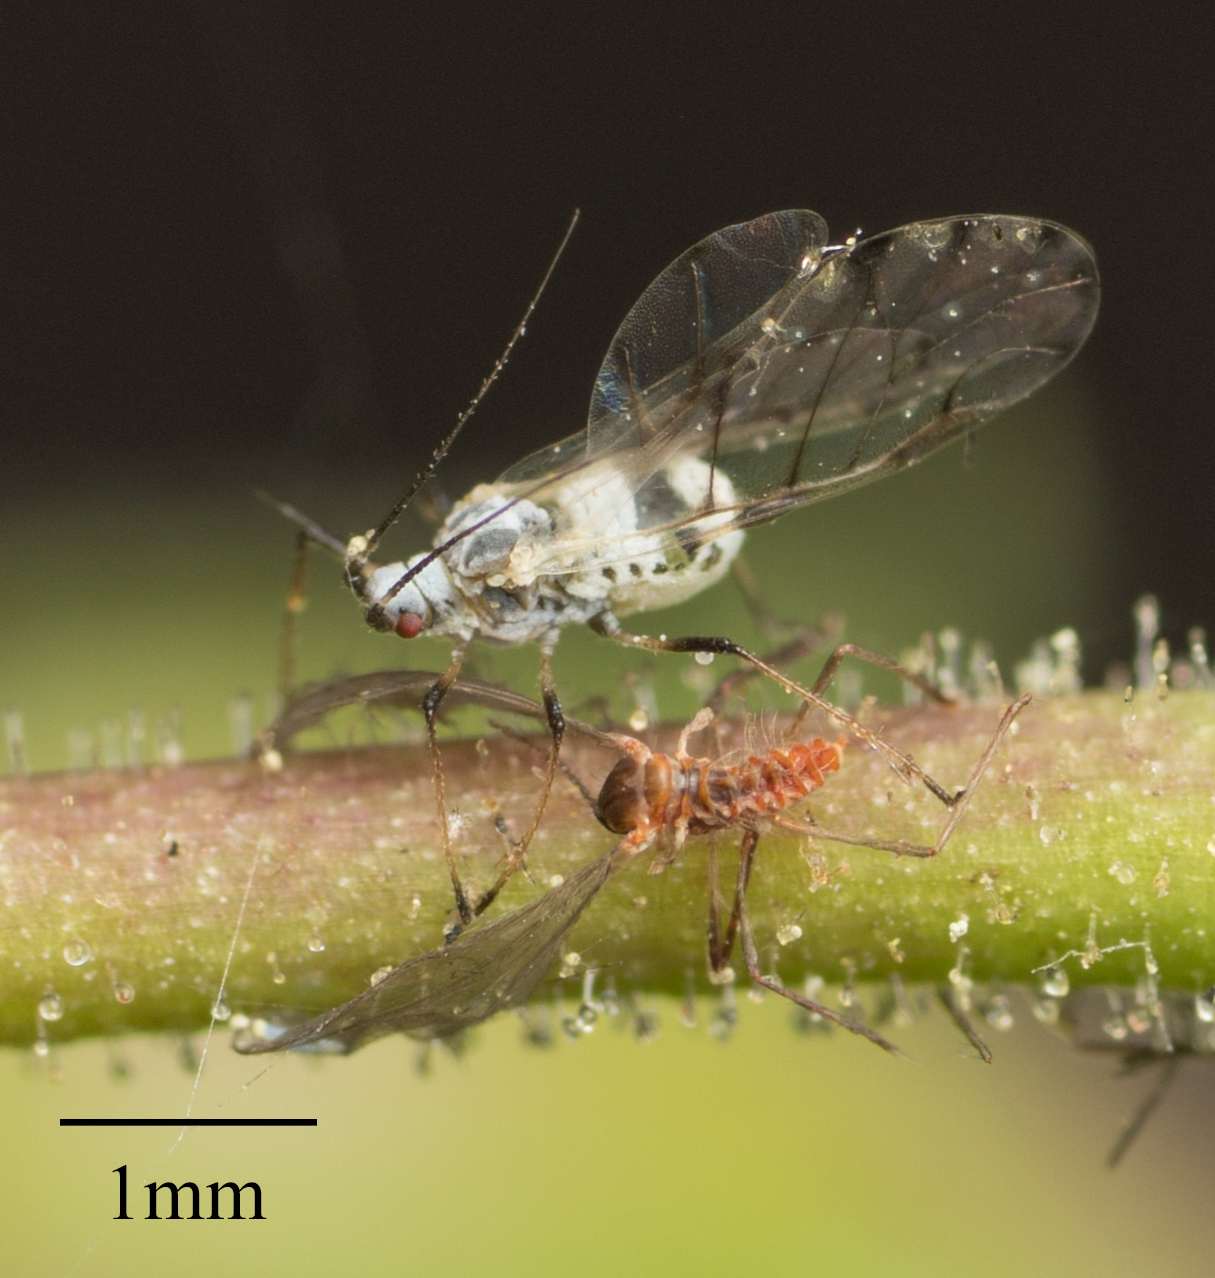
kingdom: Animalia
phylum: Arthropoda
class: Insecta
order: Hemiptera
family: Aphididae
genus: Eucarazzia
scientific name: Eucarazzia elegans
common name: Mint aphid
